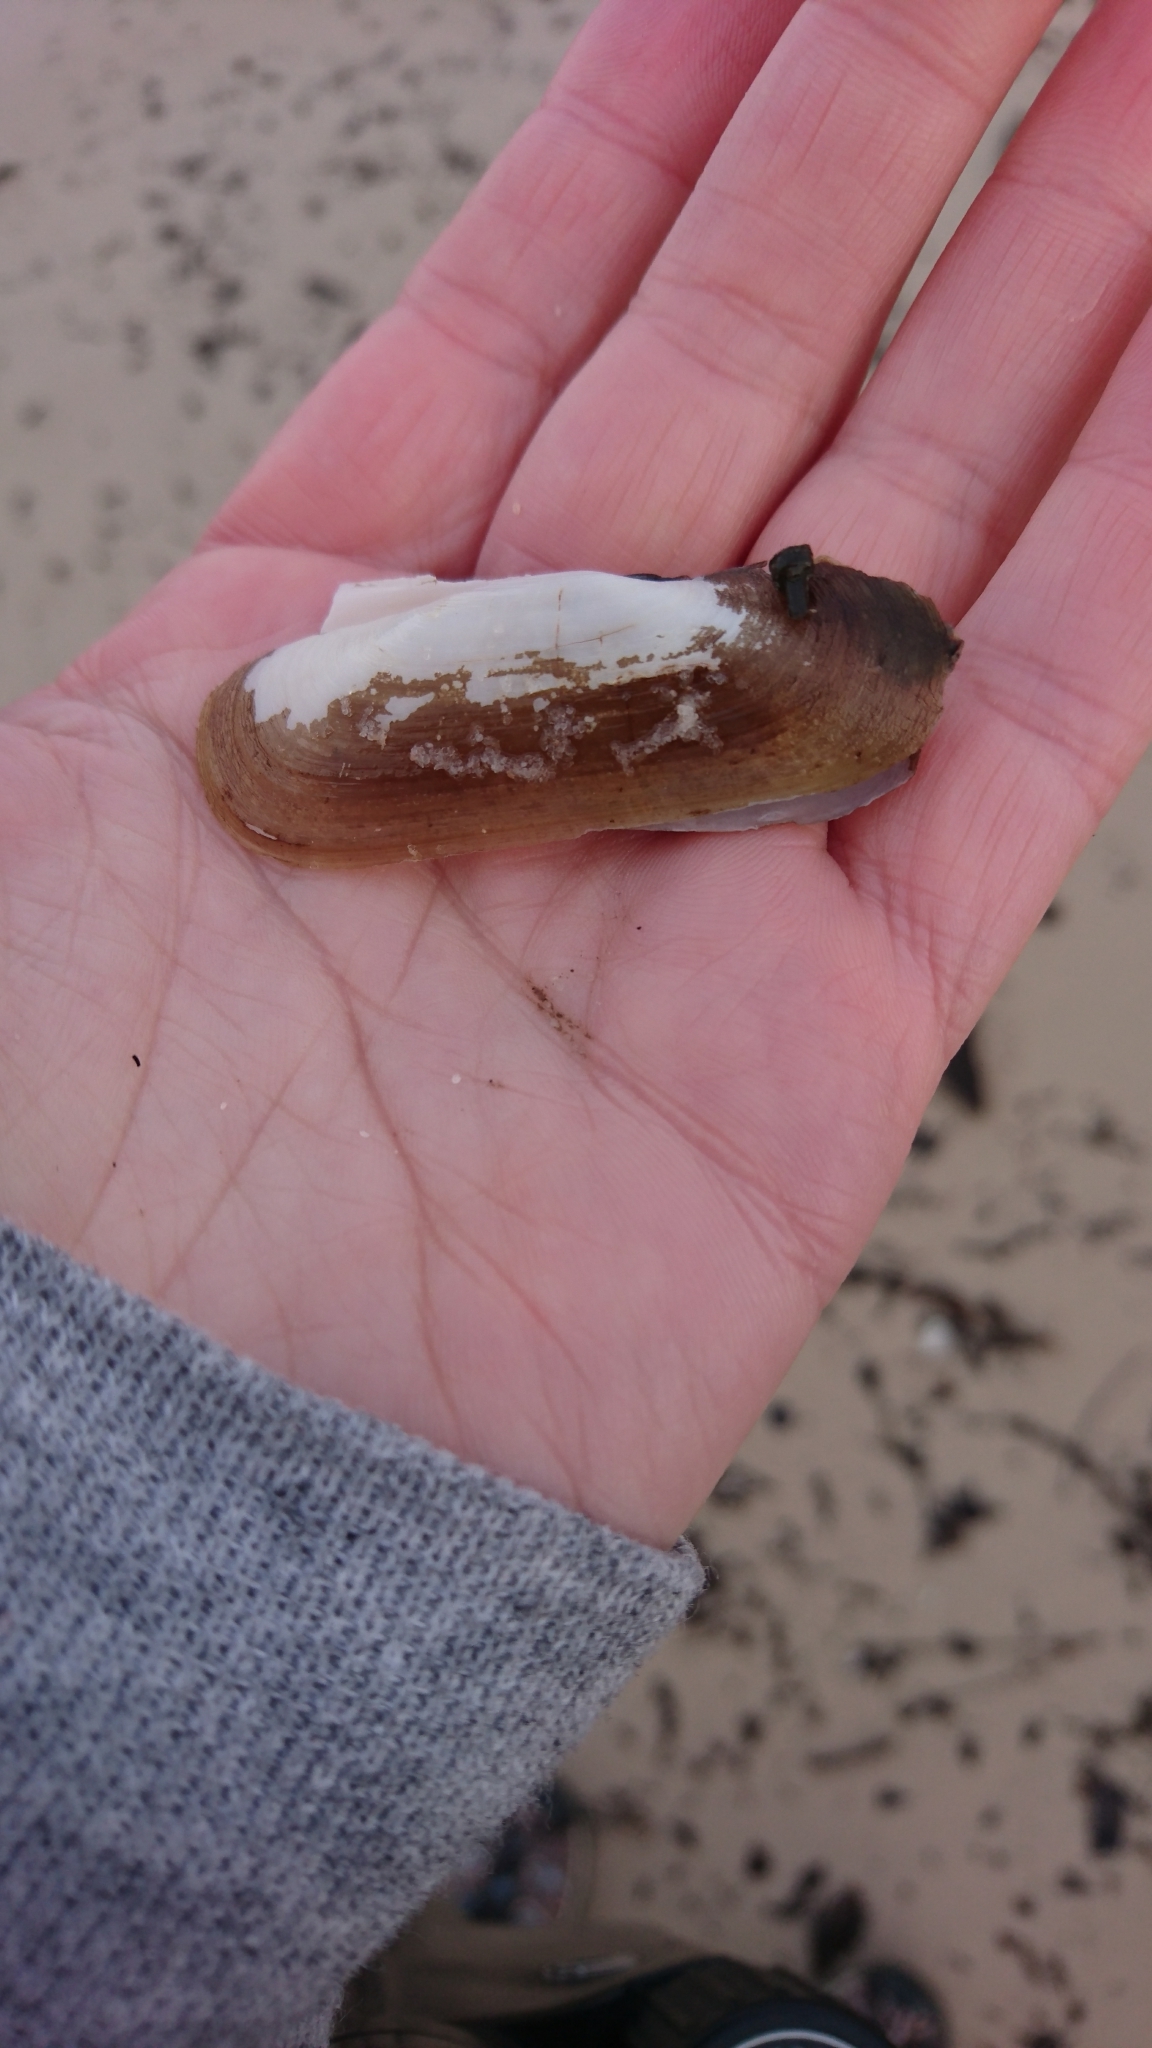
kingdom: Animalia
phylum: Mollusca
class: Bivalvia
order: Cardiida
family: Solecurtidae
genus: Tagelus
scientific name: Tagelus plebeius
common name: Stout tagelus
